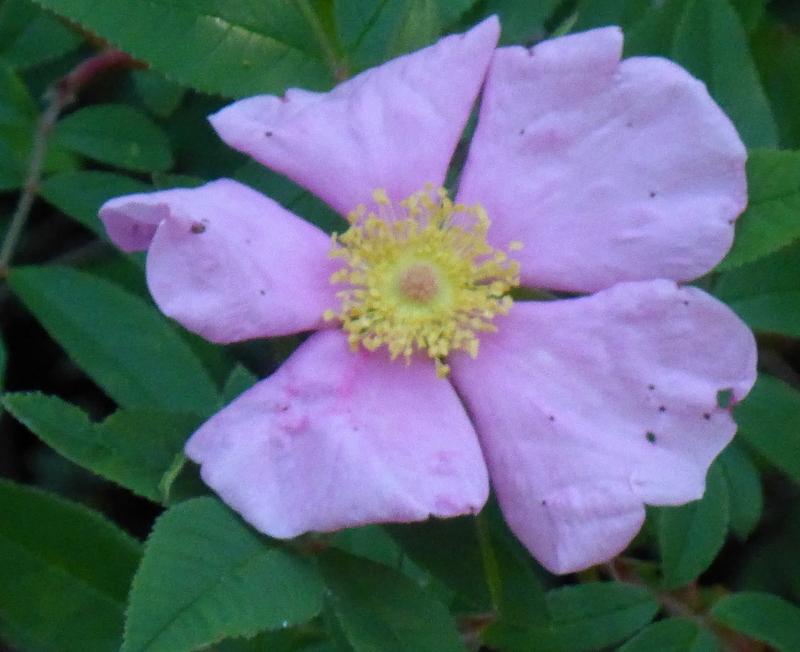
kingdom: Plantae
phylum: Tracheophyta
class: Magnoliopsida
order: Rosales
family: Rosaceae
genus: Rosa
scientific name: Rosa palustris
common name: Swamp rose
